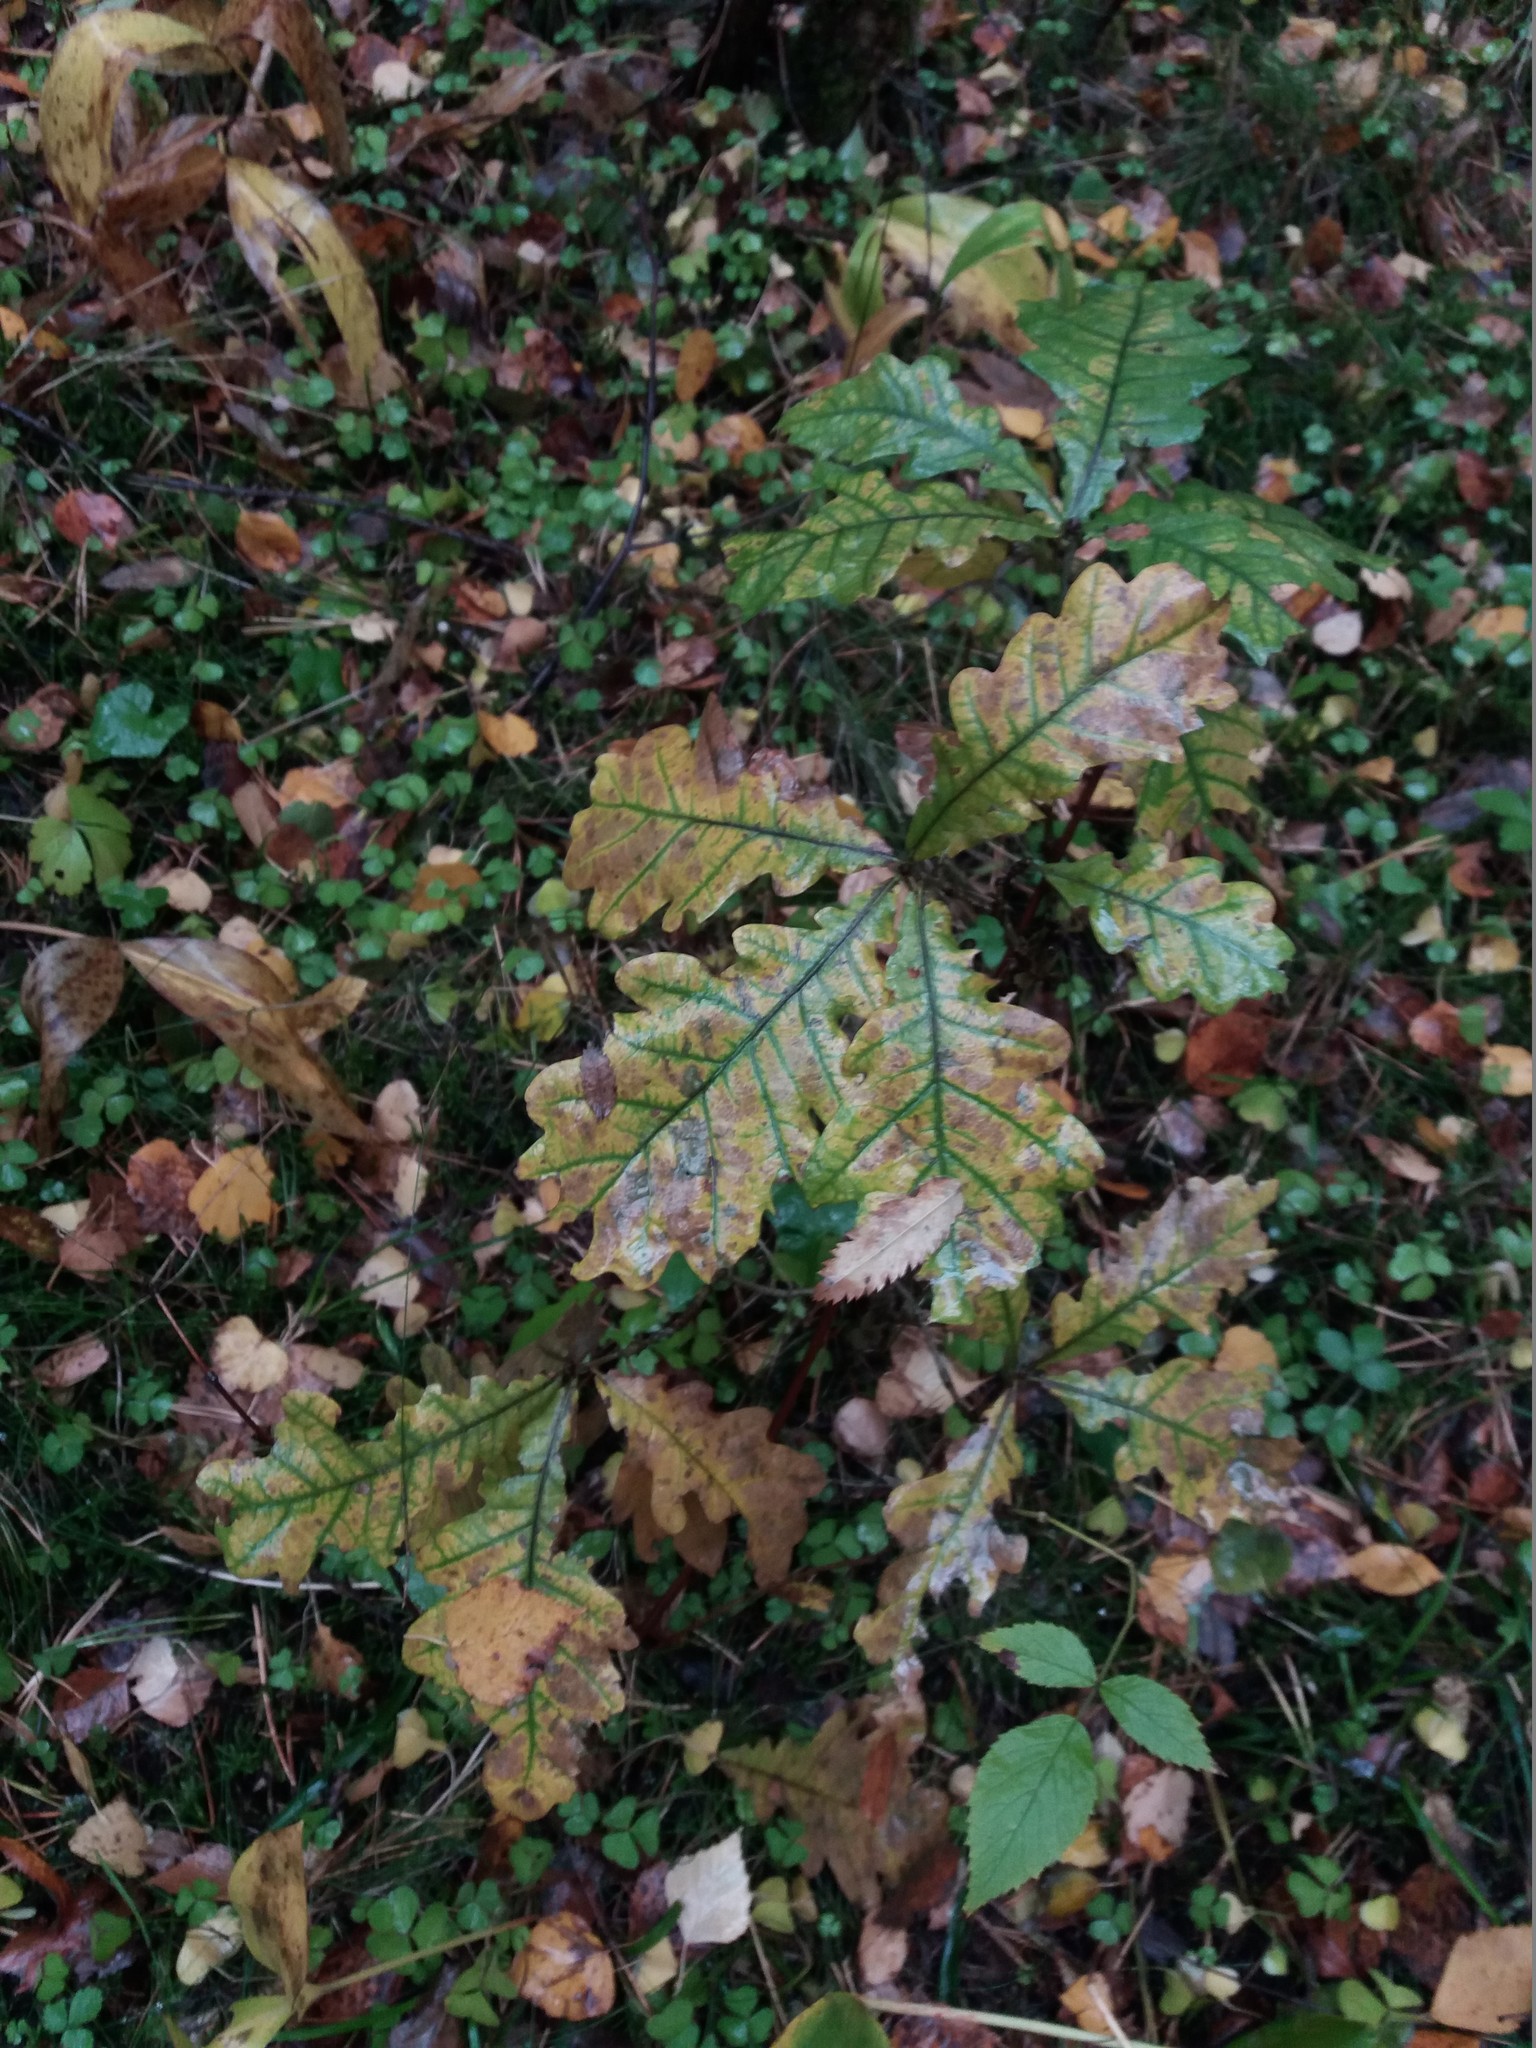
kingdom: Plantae
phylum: Tracheophyta
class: Magnoliopsida
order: Fagales
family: Fagaceae
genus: Quercus
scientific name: Quercus robur
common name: Pedunculate oak
